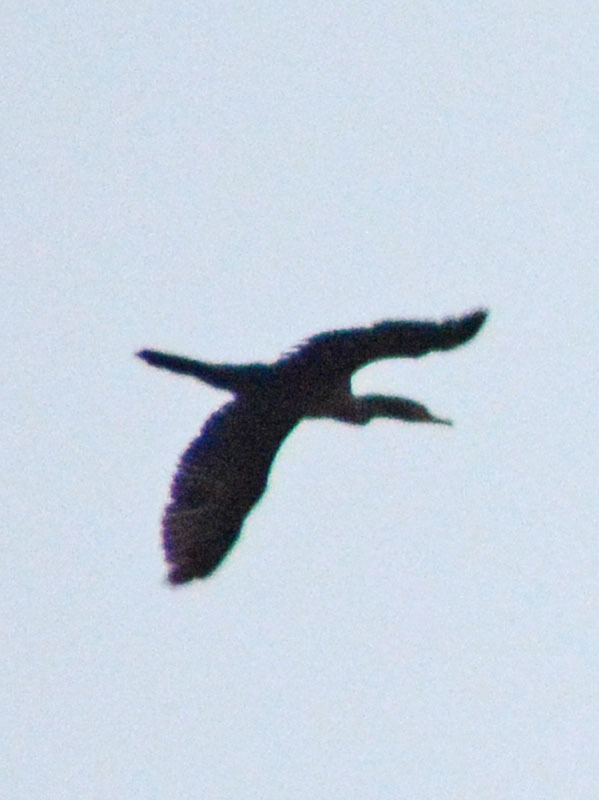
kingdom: Animalia
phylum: Chordata
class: Aves
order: Suliformes
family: Phalacrocoracidae
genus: Phalacrocorax
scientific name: Phalacrocorax brasilianus
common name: Neotropic cormorant
